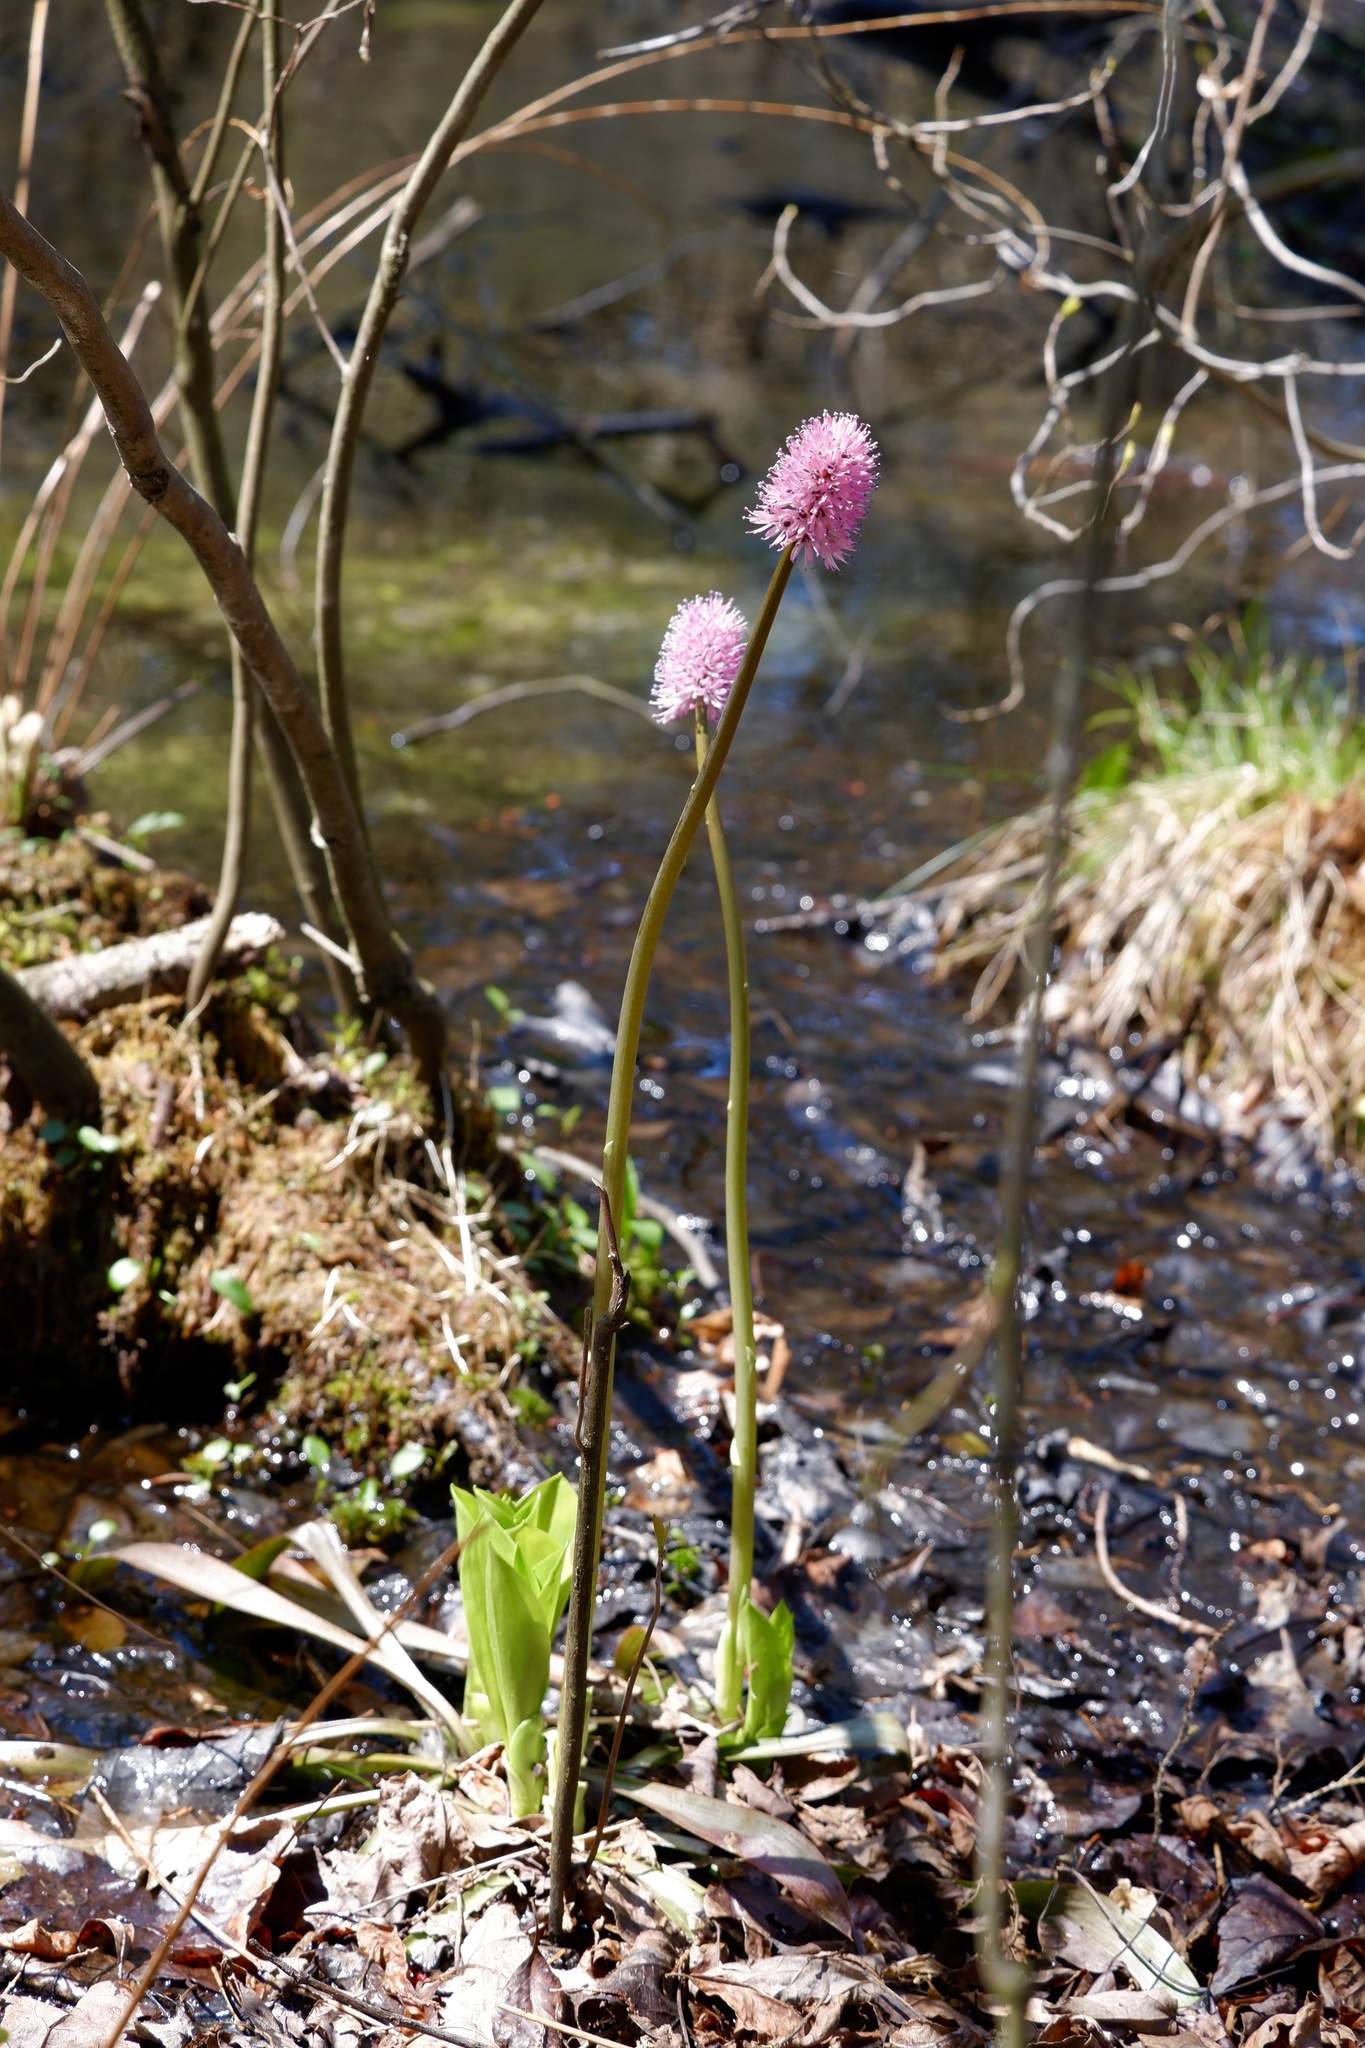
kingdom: Plantae
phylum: Tracheophyta
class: Liliopsida
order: Liliales
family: Melanthiaceae
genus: Helonias
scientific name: Helonias bullata
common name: Swamp-pink
